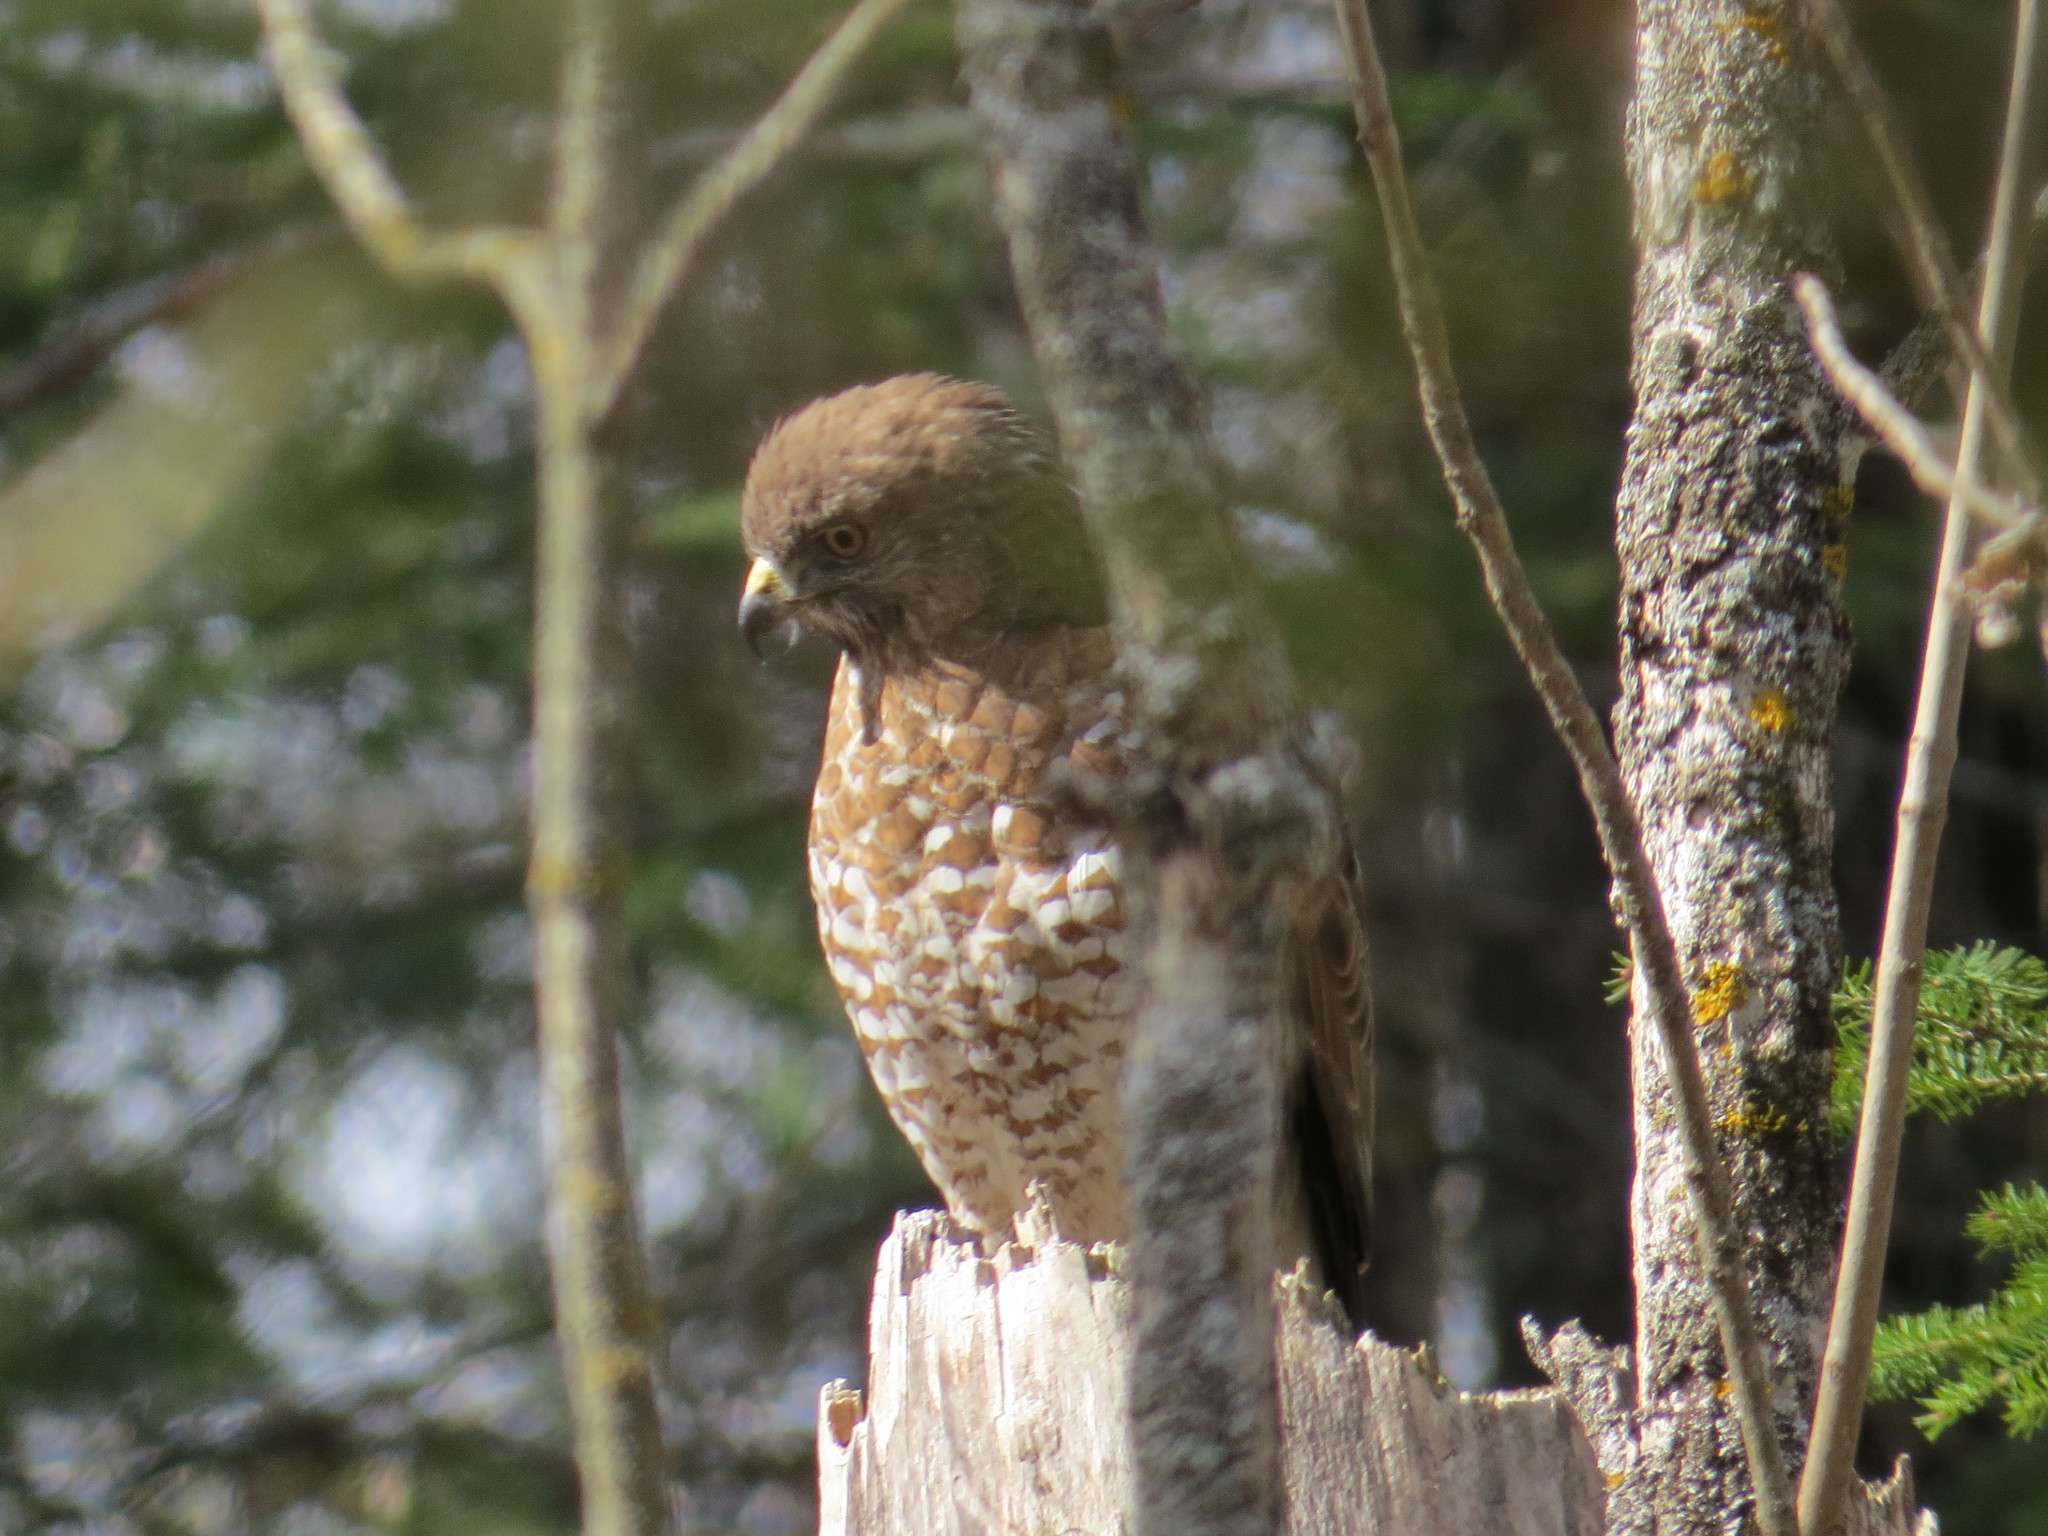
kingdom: Animalia
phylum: Chordata
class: Aves
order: Accipitriformes
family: Accipitridae
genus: Buteo
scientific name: Buteo platypterus
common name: Broad-winged hawk
